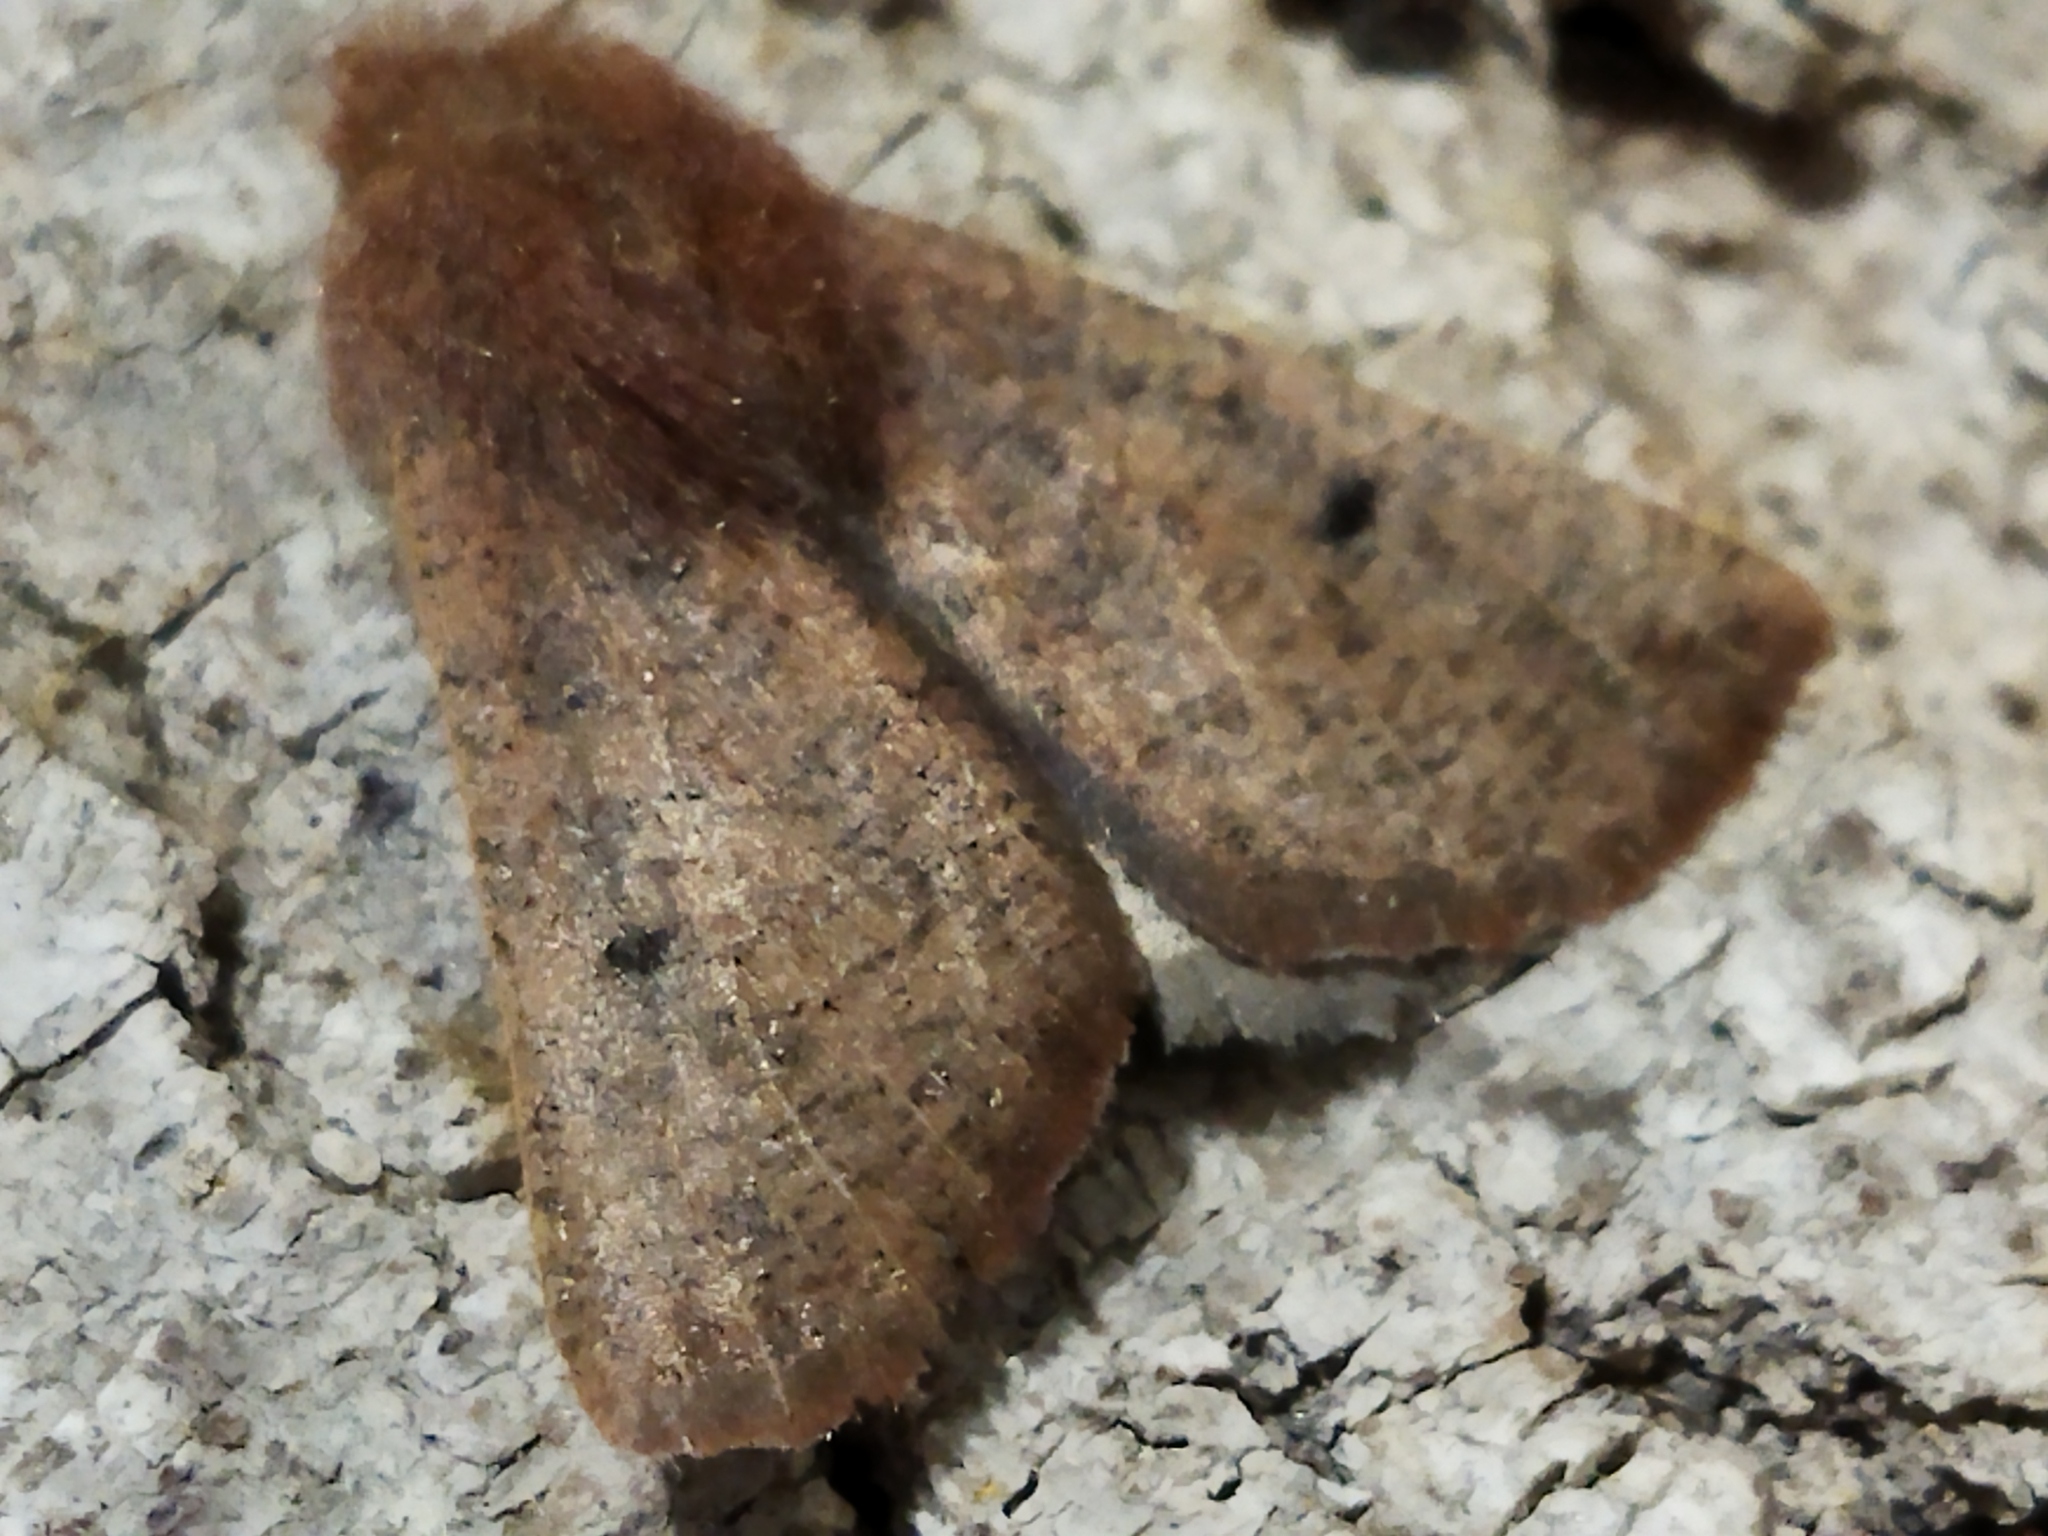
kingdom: Animalia
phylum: Arthropoda
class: Insecta
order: Lepidoptera
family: Geometridae
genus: Dasycorsa
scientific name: Dasycorsa modesta
